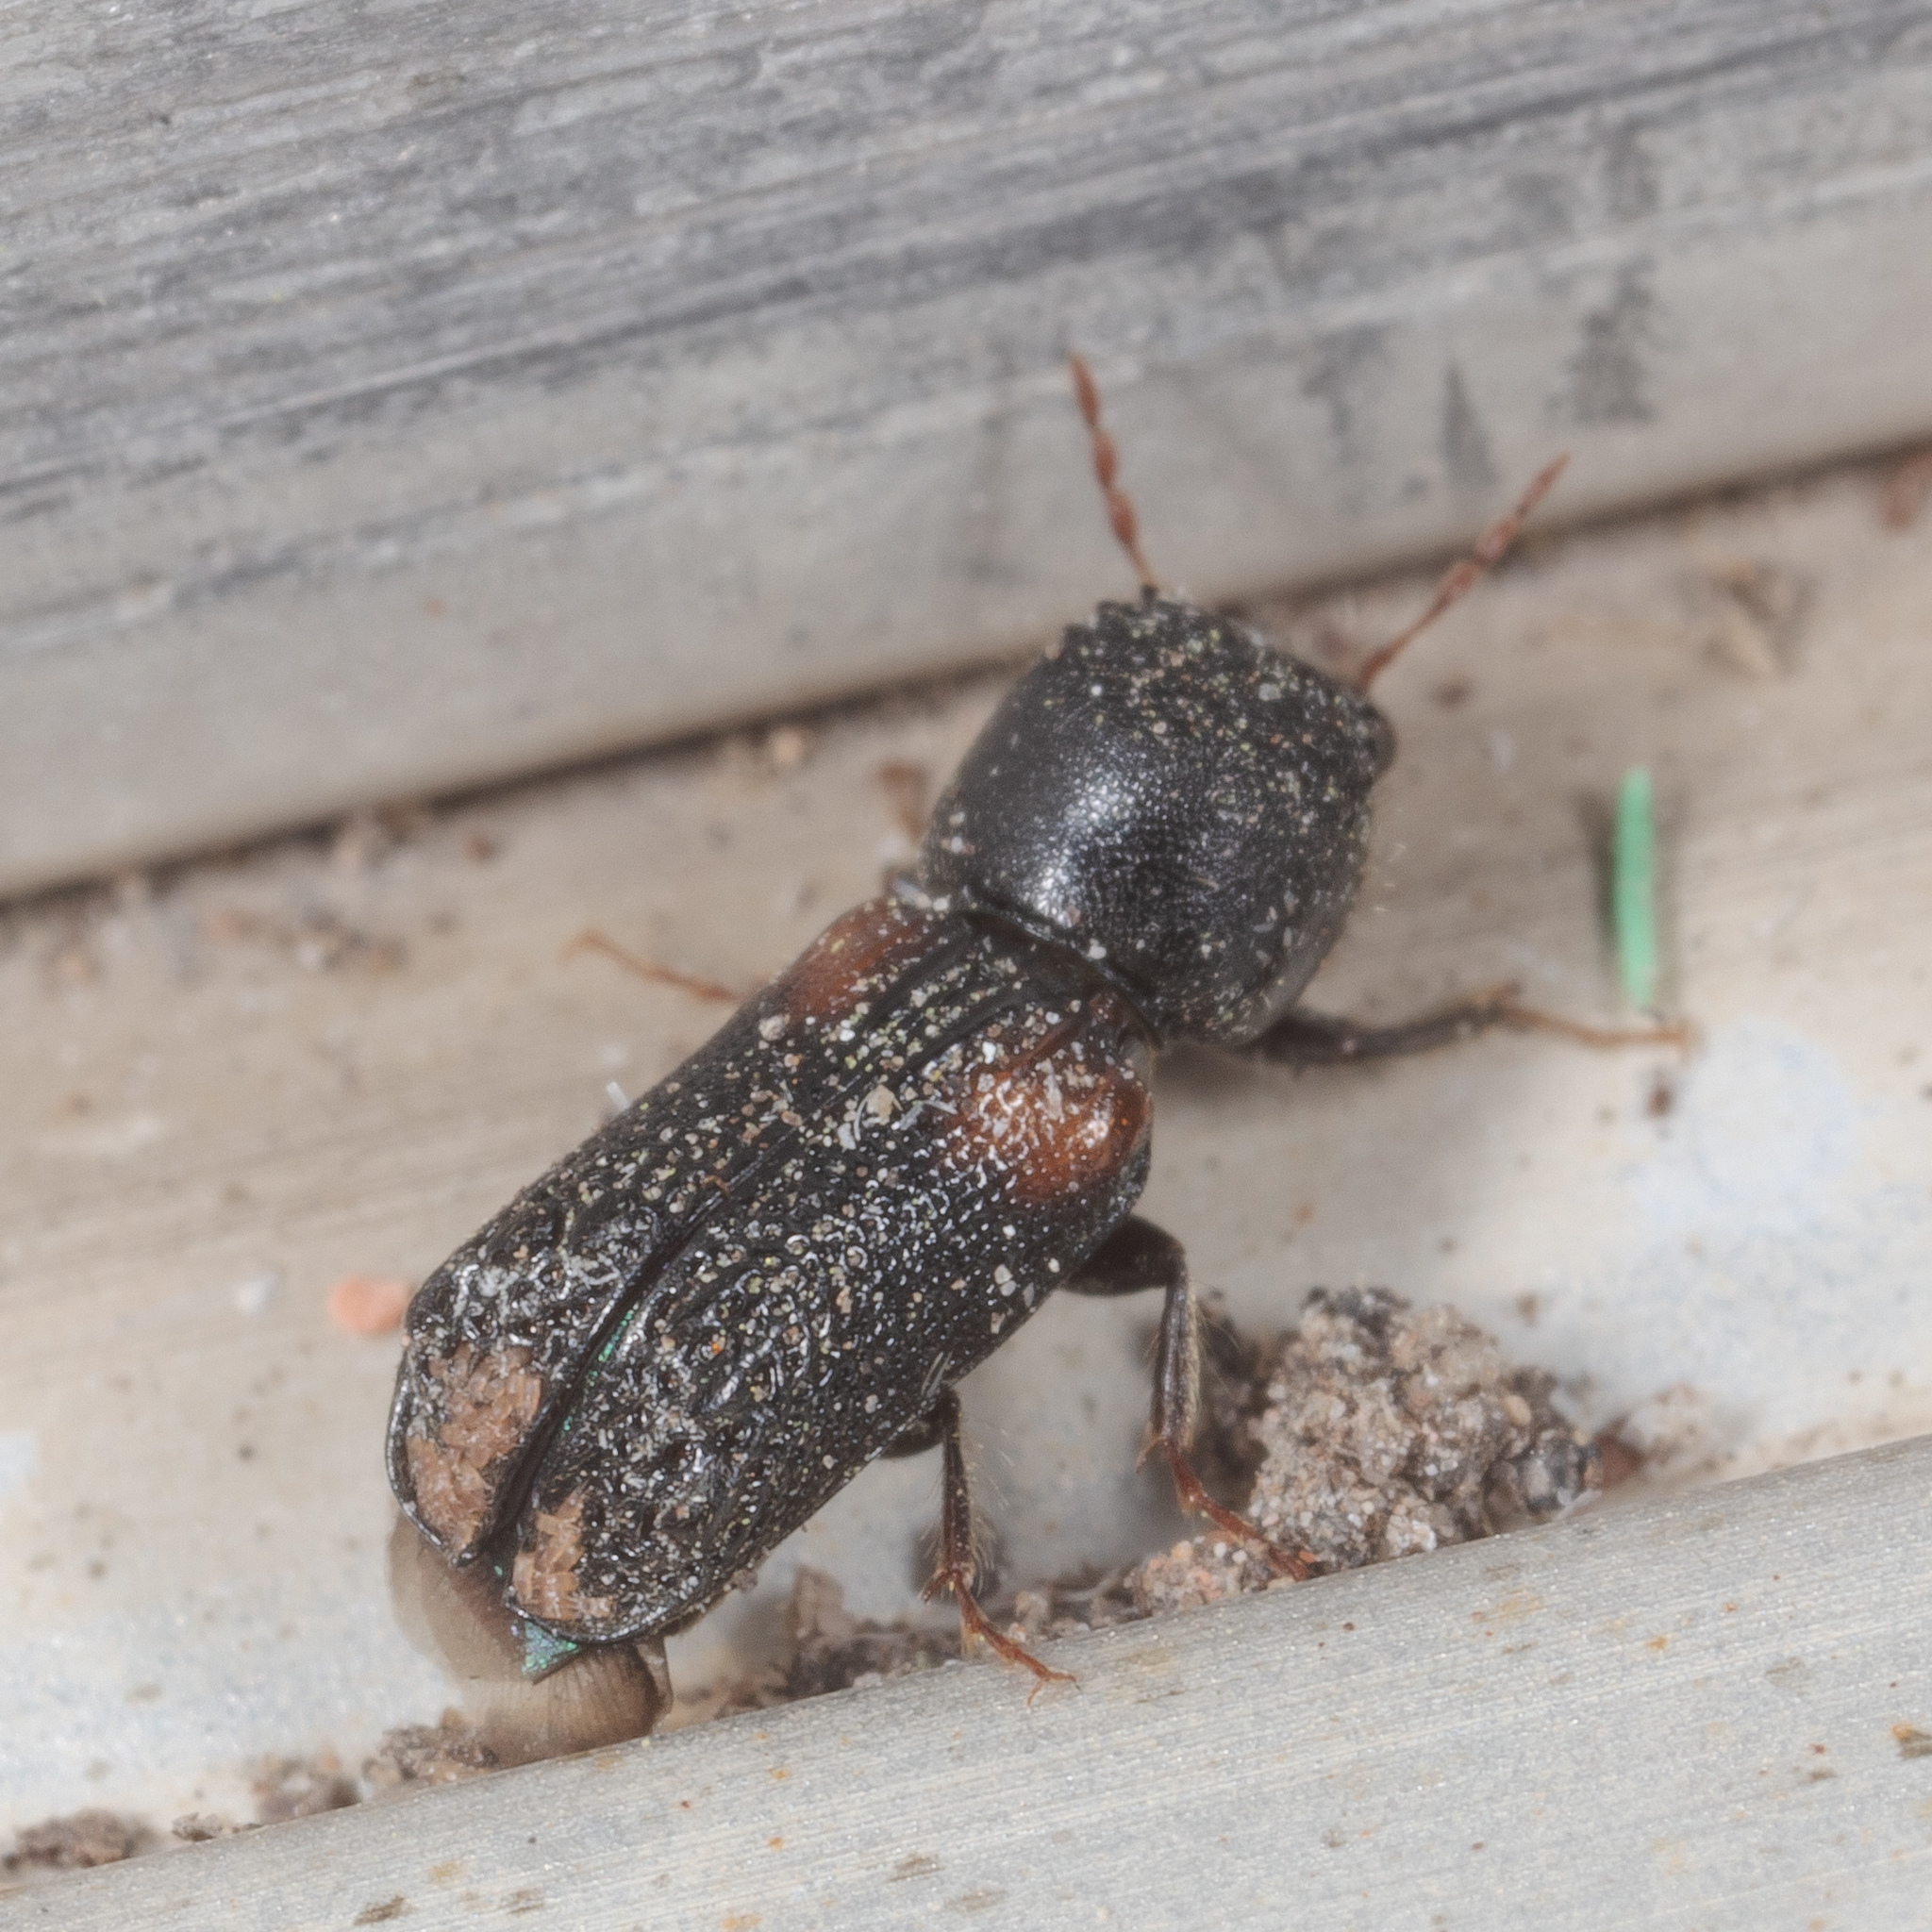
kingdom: Animalia
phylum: Arthropoda
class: Insecta
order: Coleoptera
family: Bostrichidae
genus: Xylobiops
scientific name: Xylobiops basilaris
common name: Red-shouldered bostrichid
